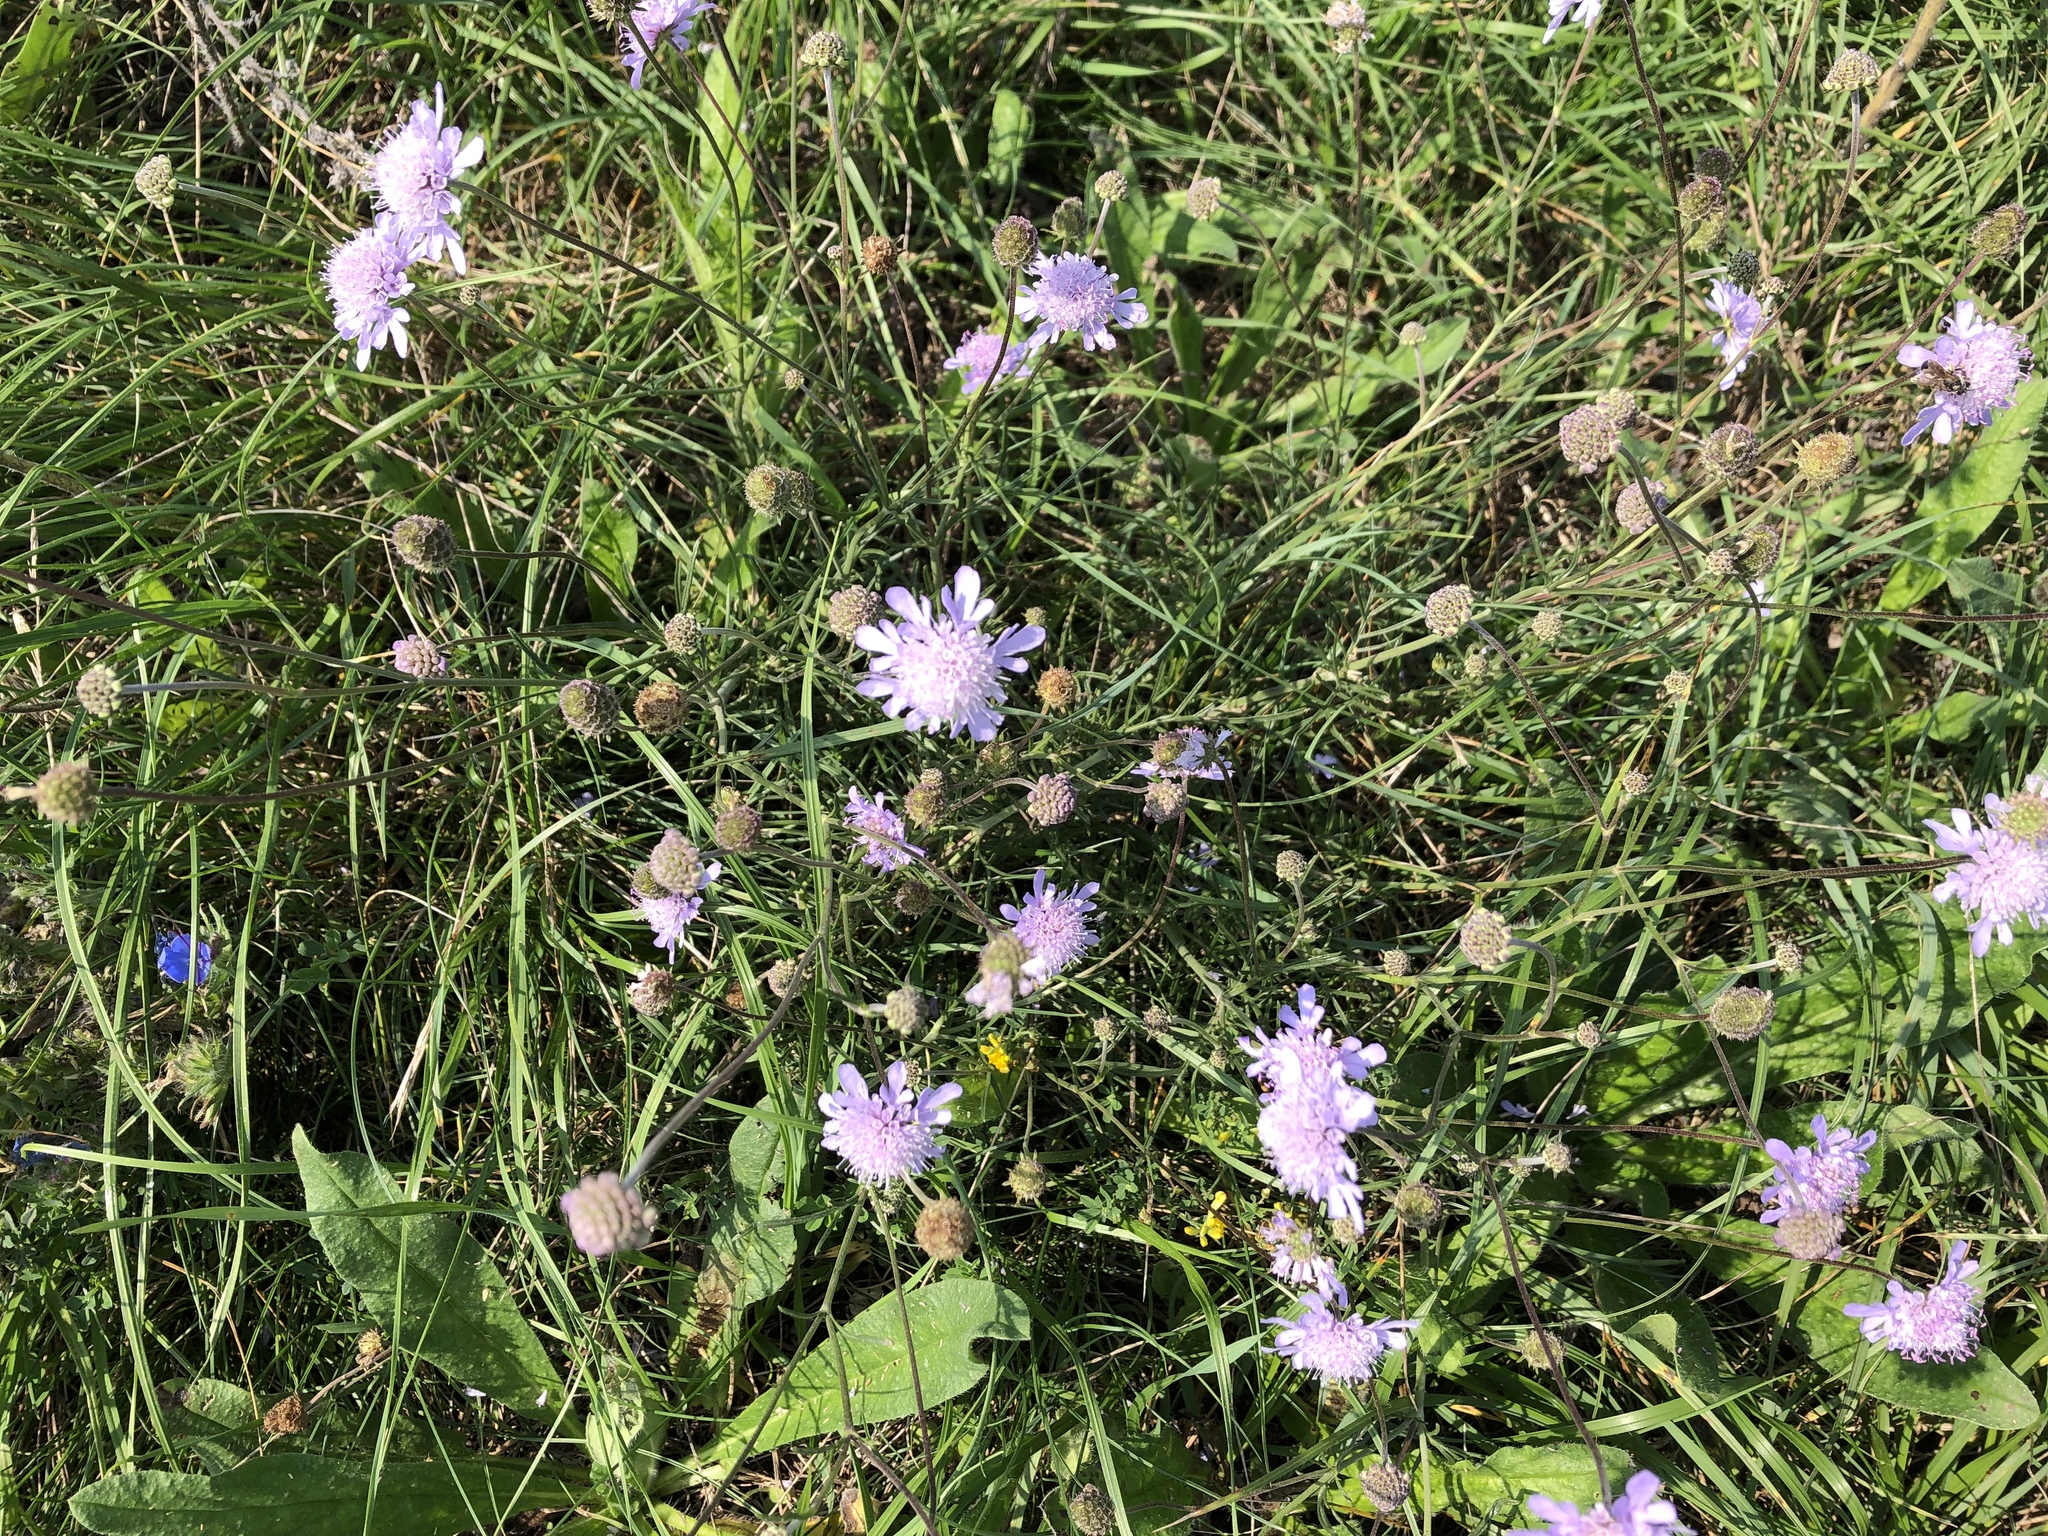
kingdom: Plantae
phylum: Tracheophyta
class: Magnoliopsida
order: Dipsacales
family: Caprifoliaceae
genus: Scabiosa
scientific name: Scabiosa canescens
